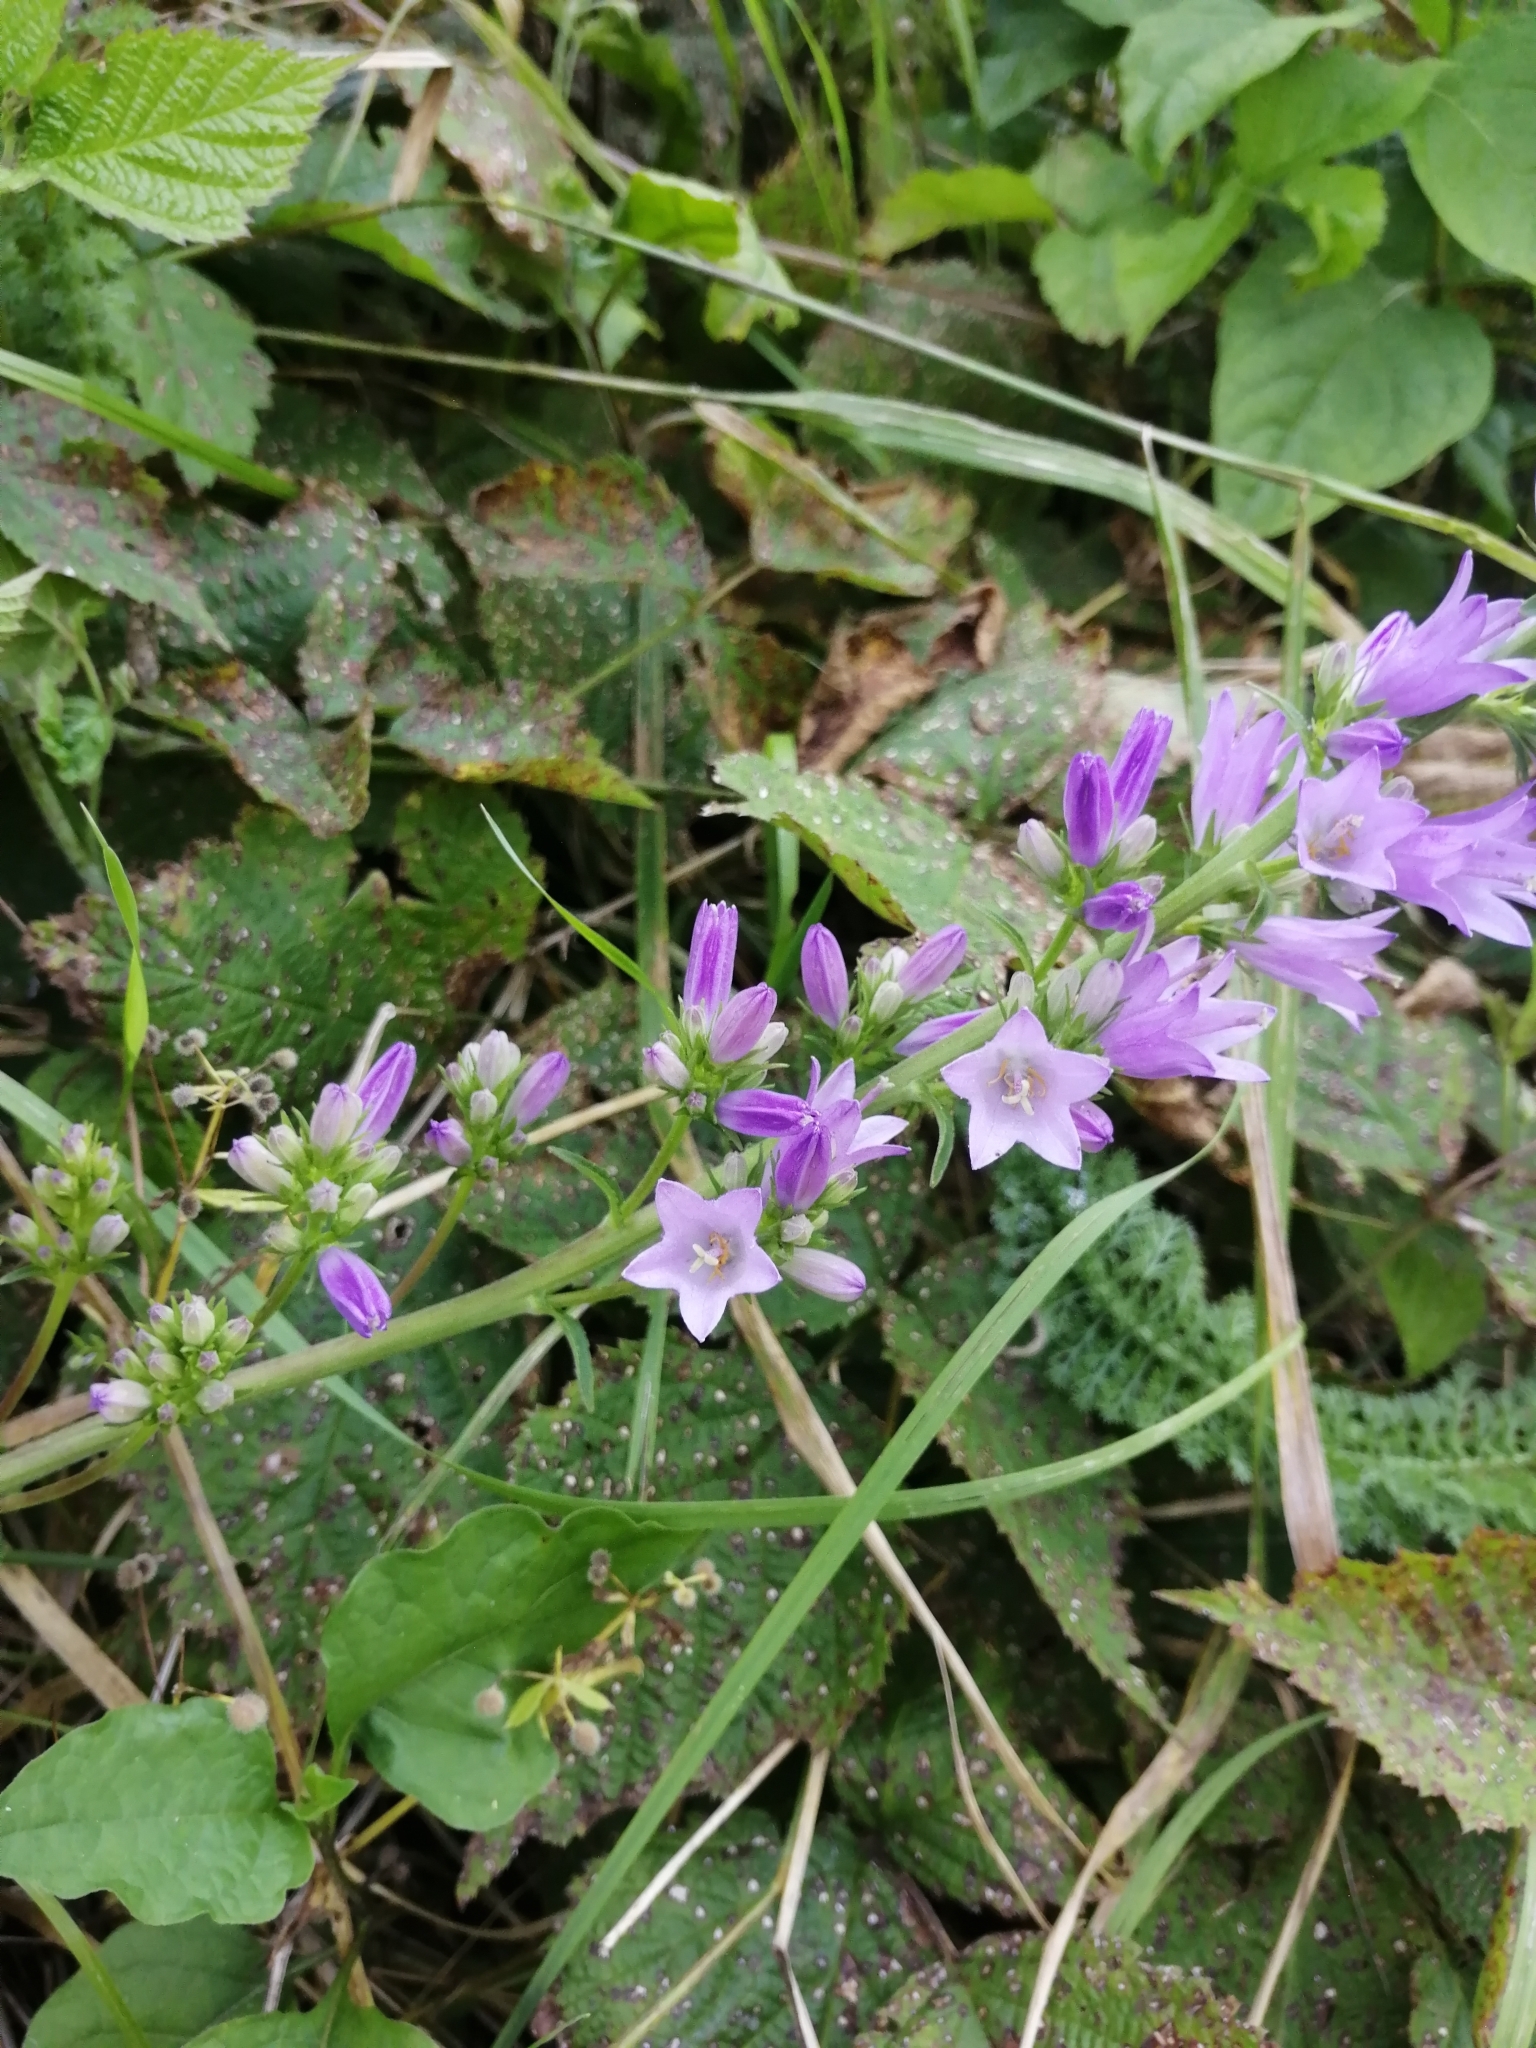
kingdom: Plantae
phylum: Tracheophyta
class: Magnoliopsida
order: Asterales
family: Campanulaceae
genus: Campanula
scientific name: Campanula bononiensis
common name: Pale bellflower
